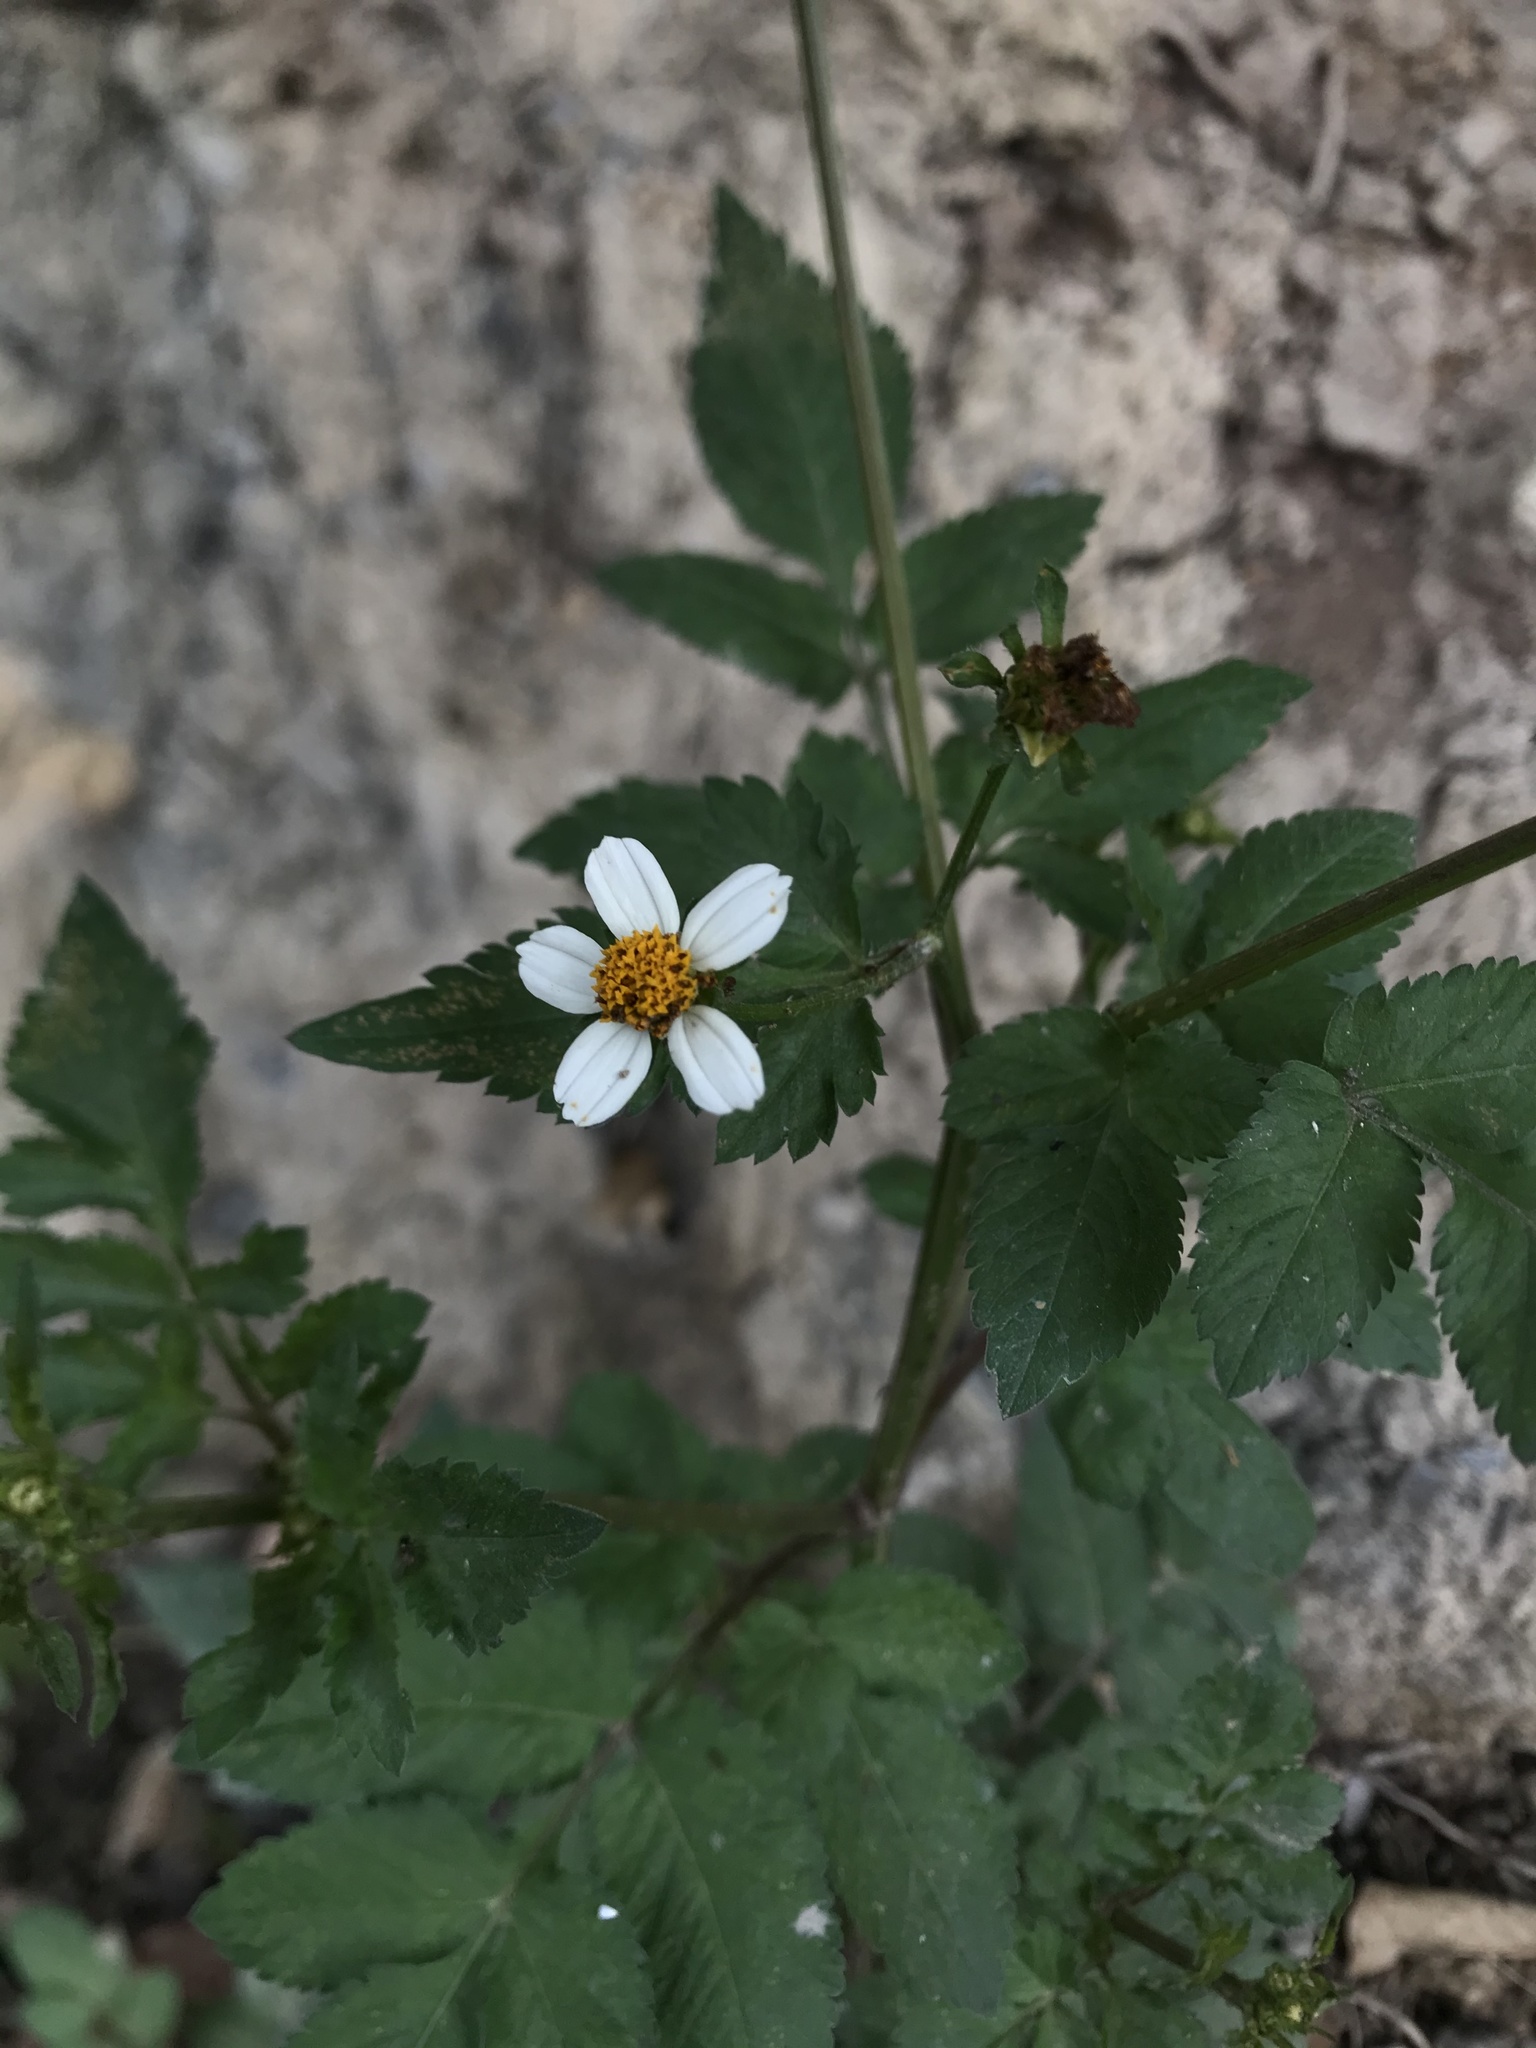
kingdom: Plantae
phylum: Tracheophyta
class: Magnoliopsida
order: Asterales
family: Asteraceae
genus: Bidens
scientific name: Bidens alba
